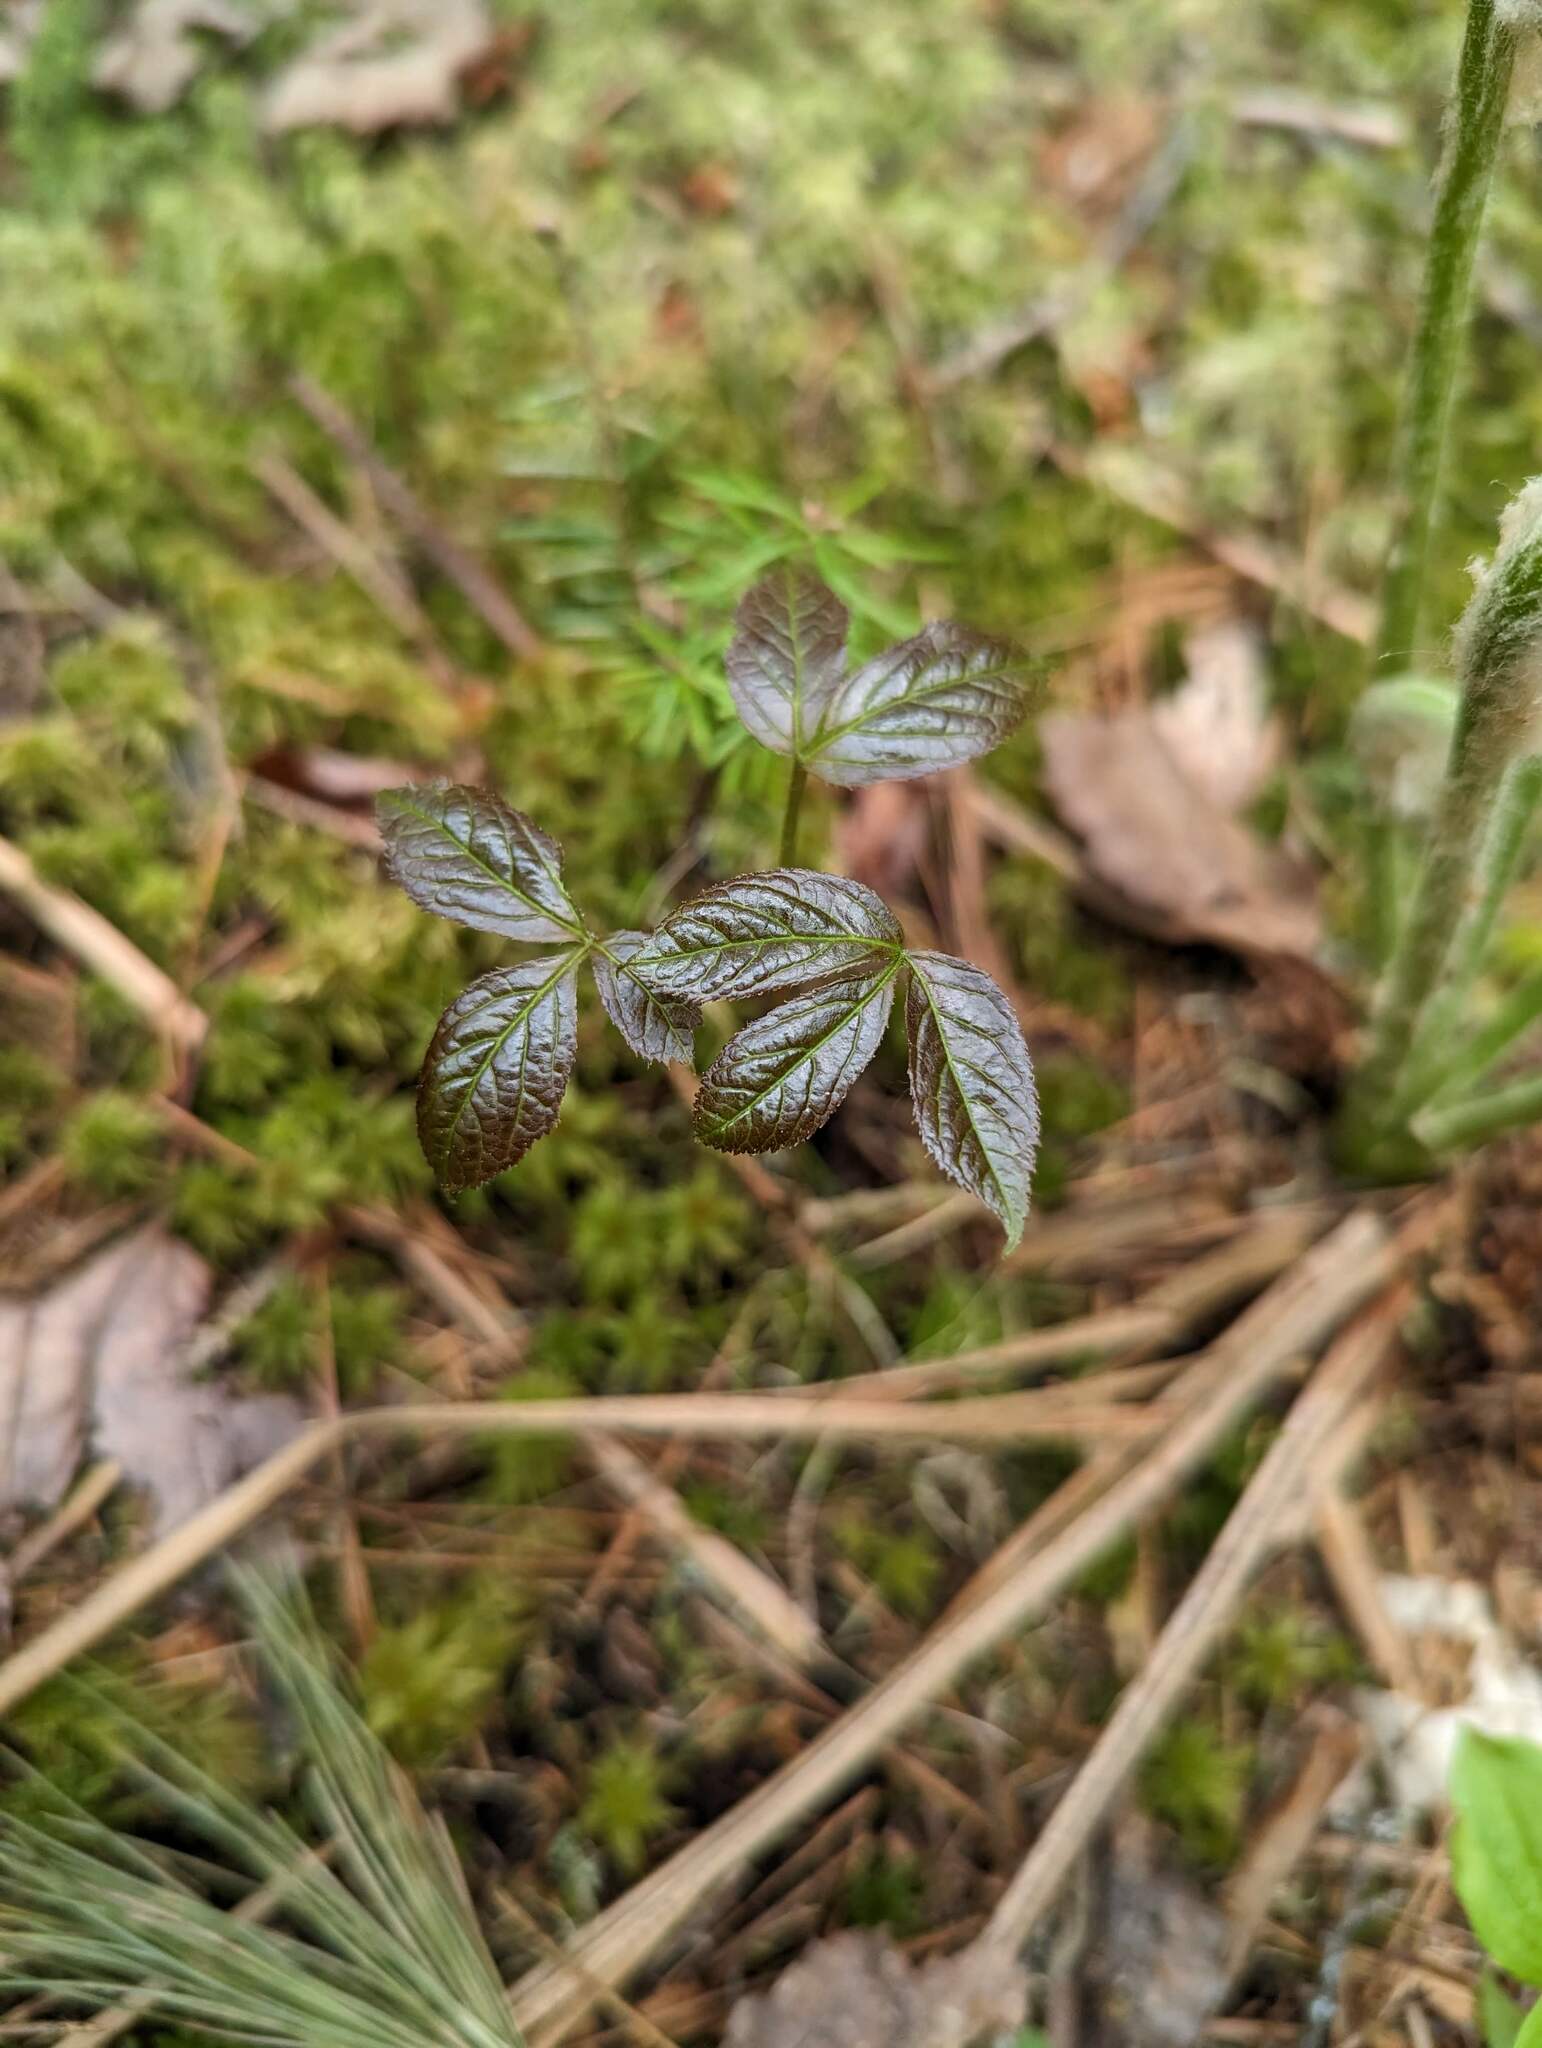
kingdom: Plantae
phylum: Tracheophyta
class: Magnoliopsida
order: Apiales
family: Araliaceae
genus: Aralia
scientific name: Aralia nudicaulis
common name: Wild sarsaparilla
